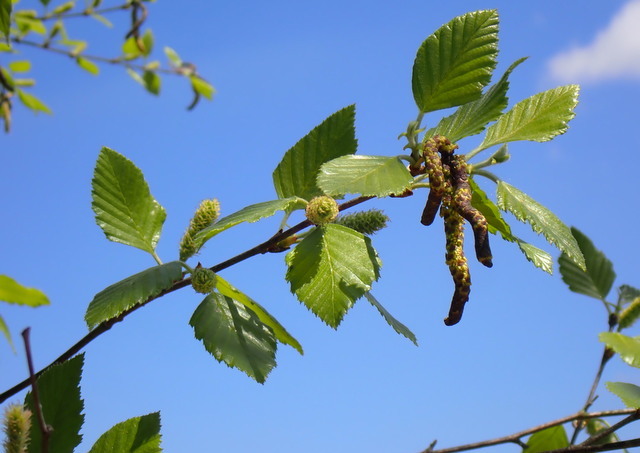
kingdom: Plantae
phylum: Tracheophyta
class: Magnoliopsida
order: Fagales
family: Betulaceae
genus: Betula
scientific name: Betula nigra
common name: Black birch
